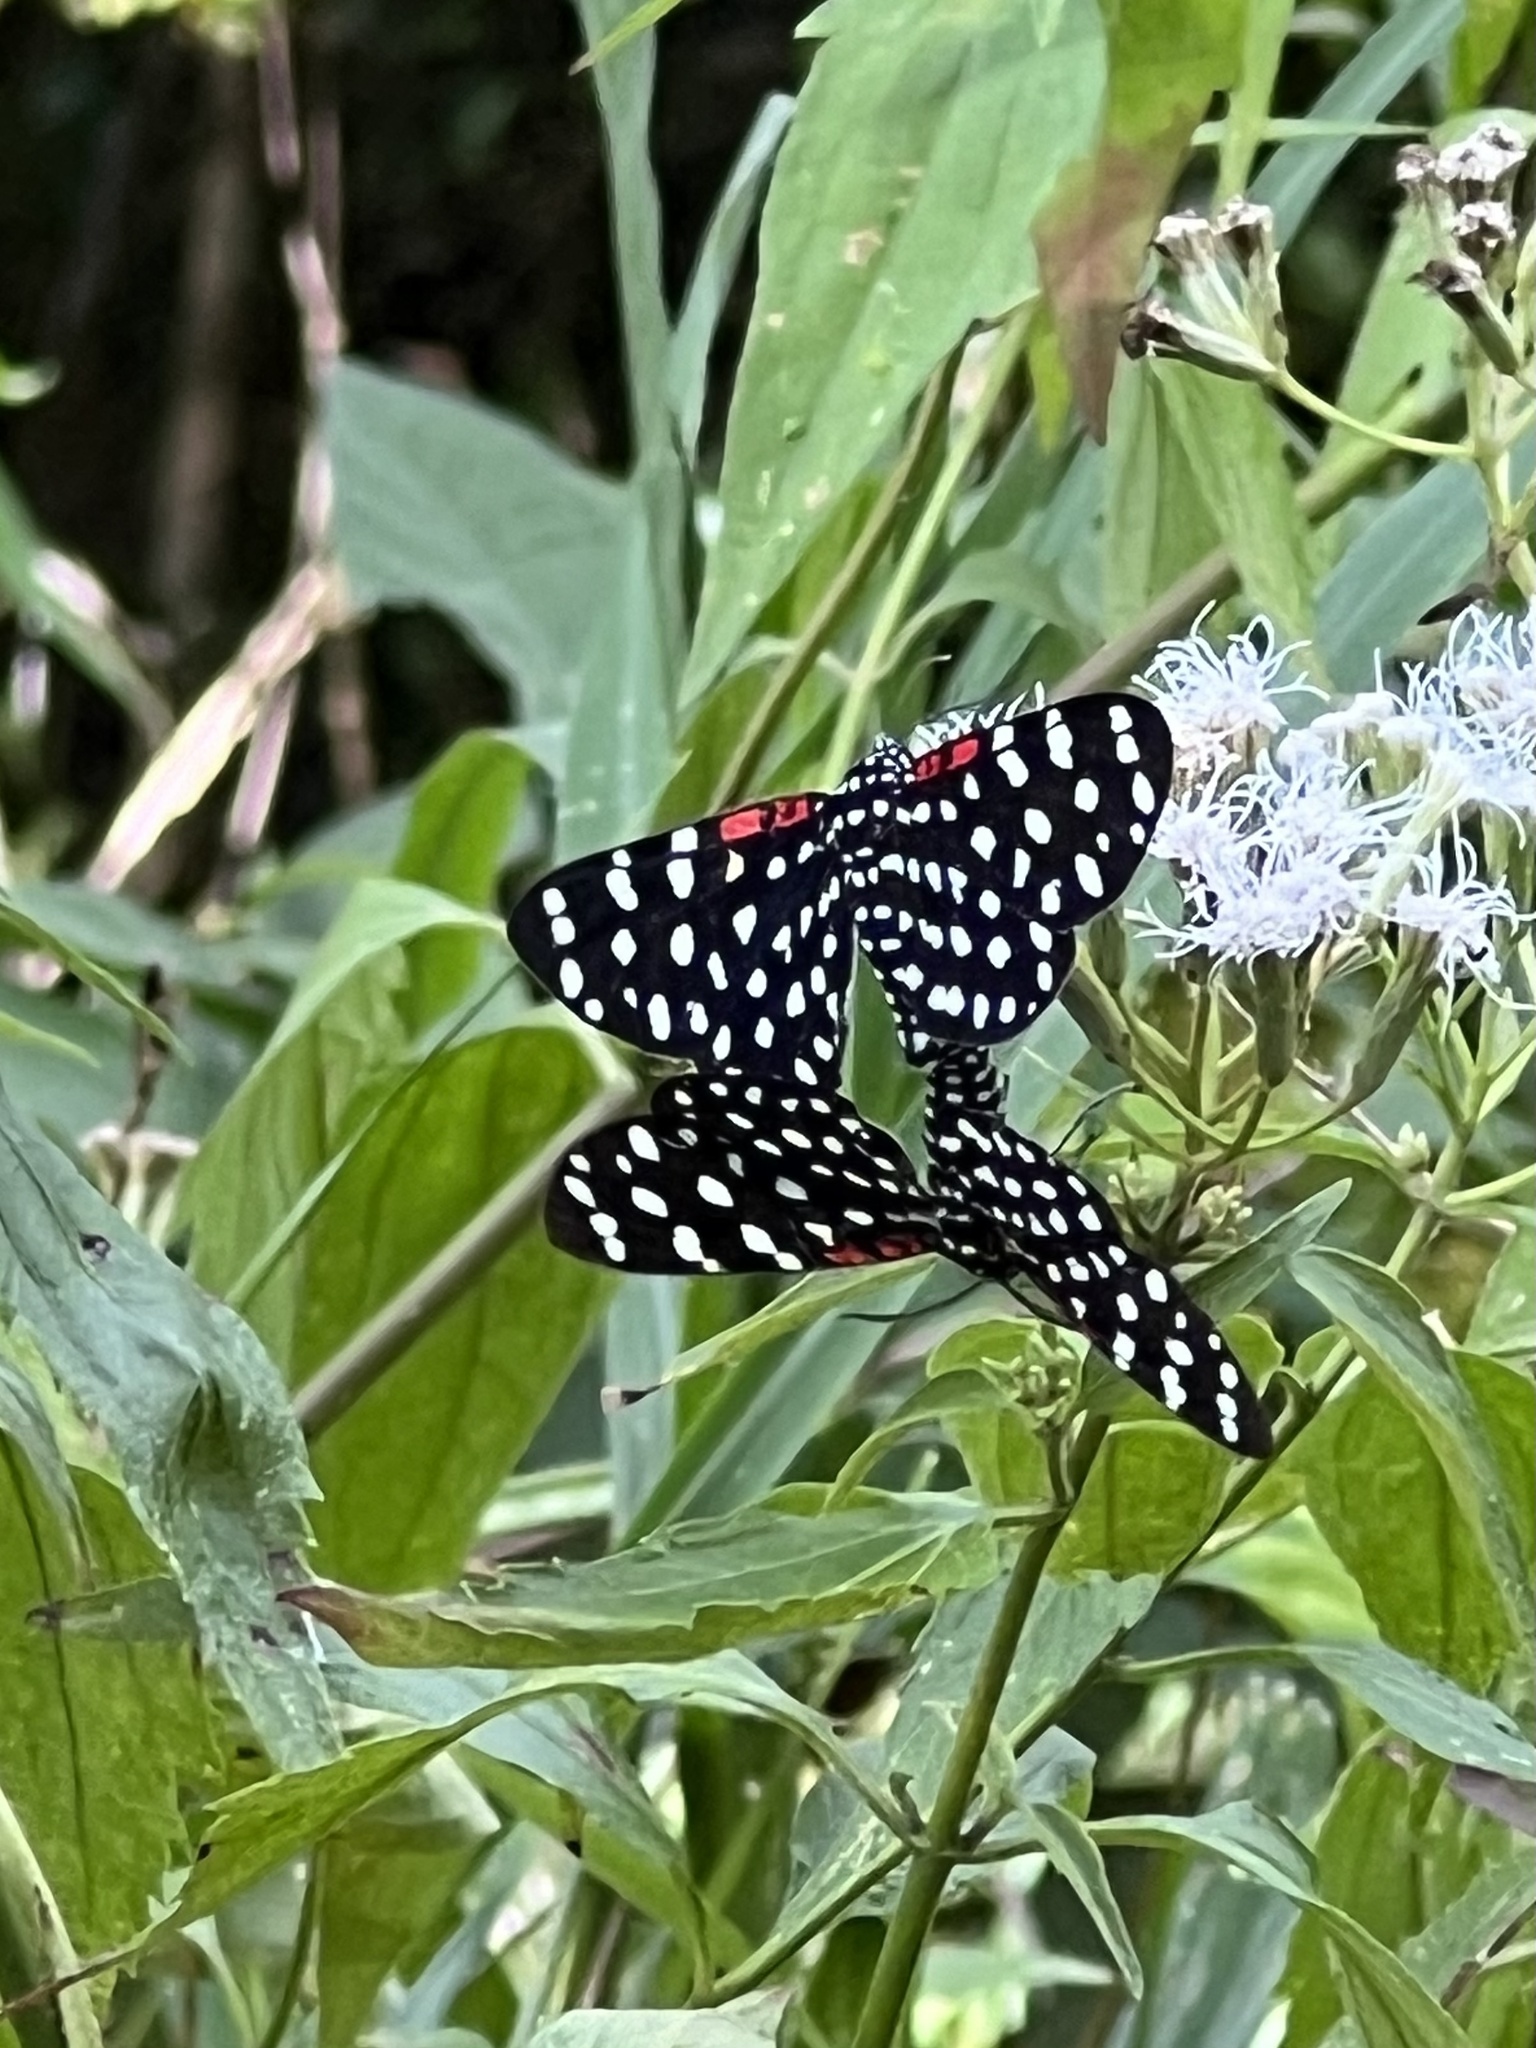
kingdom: Animalia
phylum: Arthropoda
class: Insecta
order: Lepidoptera
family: Erebidae
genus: Composia
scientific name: Composia credula
